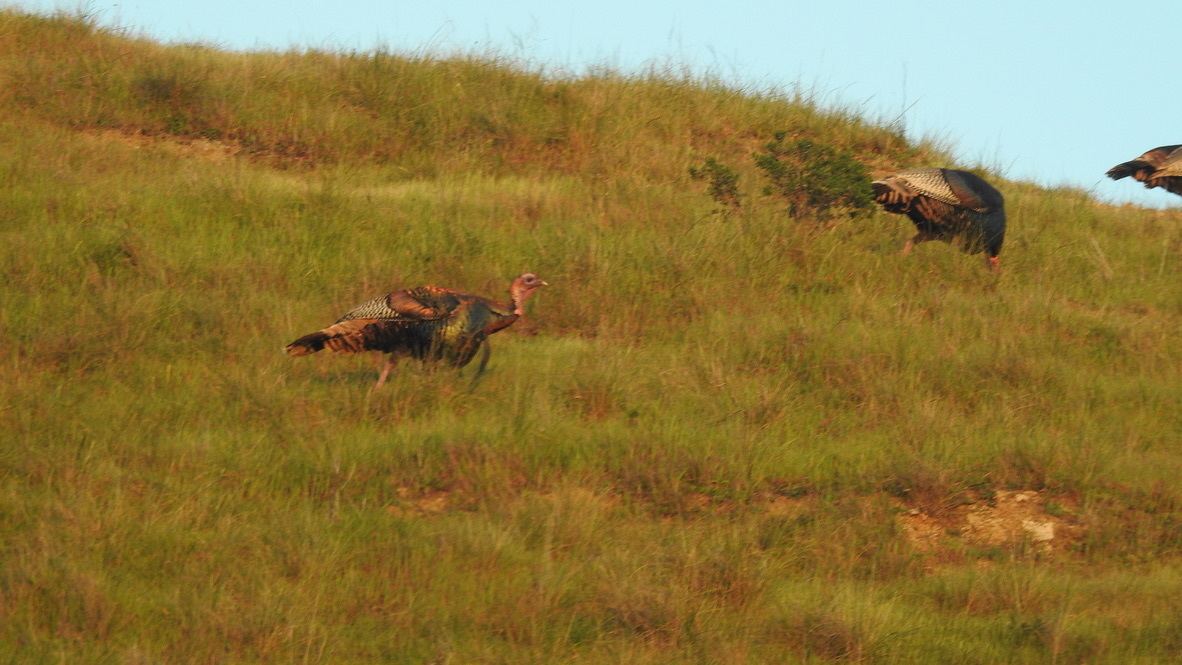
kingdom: Animalia
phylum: Chordata
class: Aves
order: Galliformes
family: Phasianidae
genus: Meleagris
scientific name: Meleagris gallopavo
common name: Wild turkey
